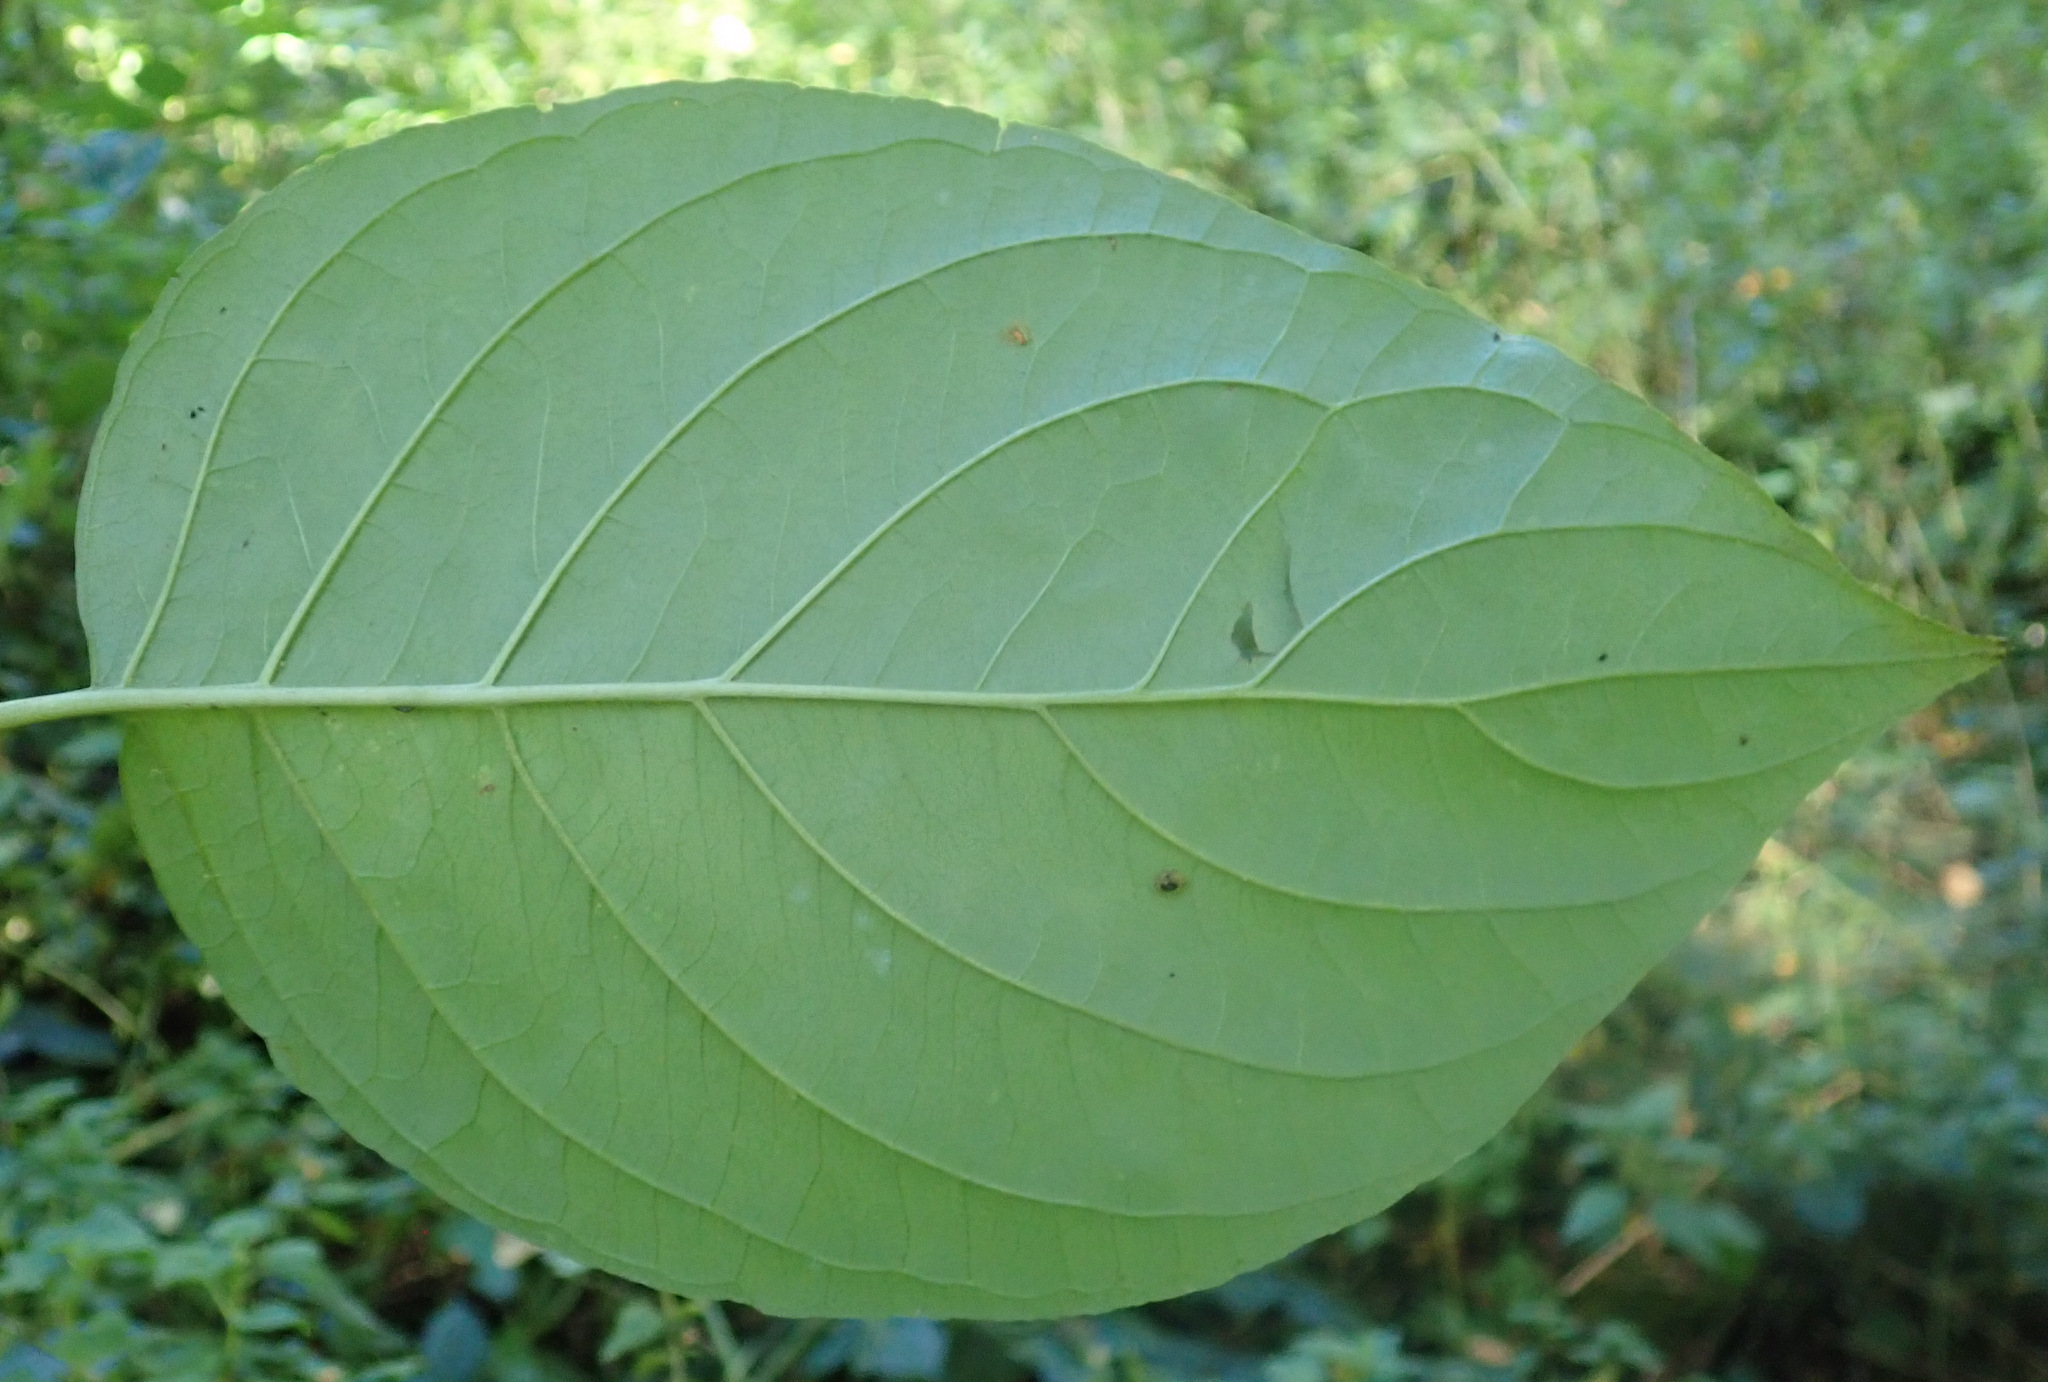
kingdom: Plantae
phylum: Tracheophyta
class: Magnoliopsida
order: Cornales
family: Cornaceae
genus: Cornus
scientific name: Cornus sanguinea
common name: Dogwood
